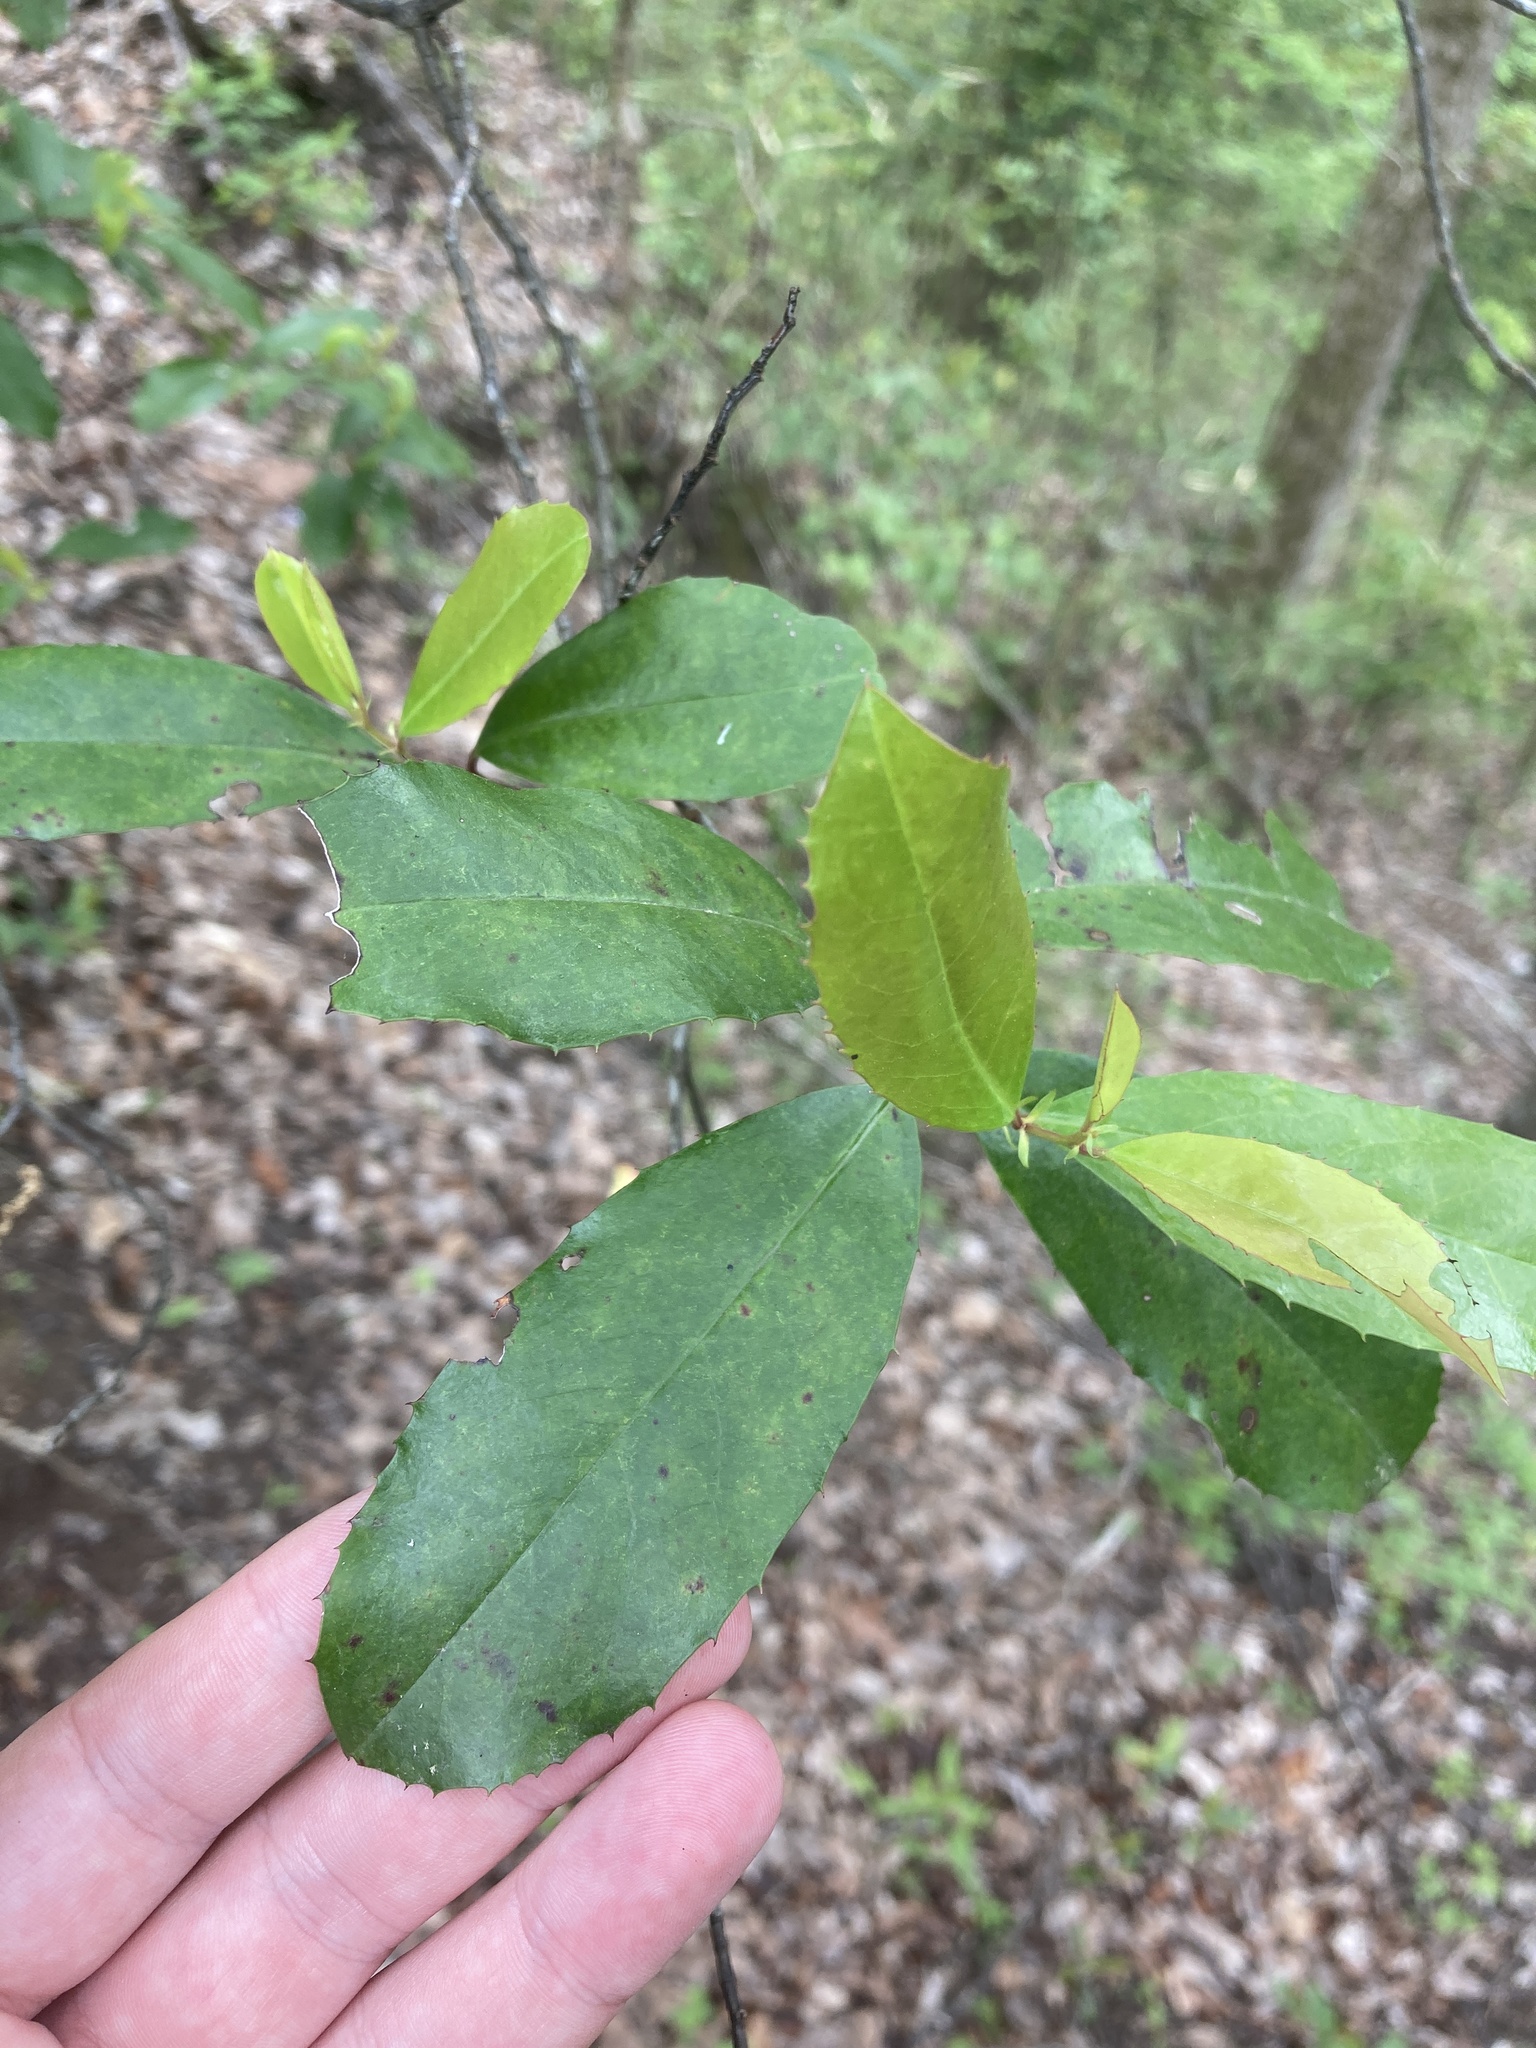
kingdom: Plantae
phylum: Tracheophyta
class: Magnoliopsida
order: Rosales
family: Rosaceae
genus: Prunus
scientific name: Prunus caroliniana
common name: Carolina laurel cherry
